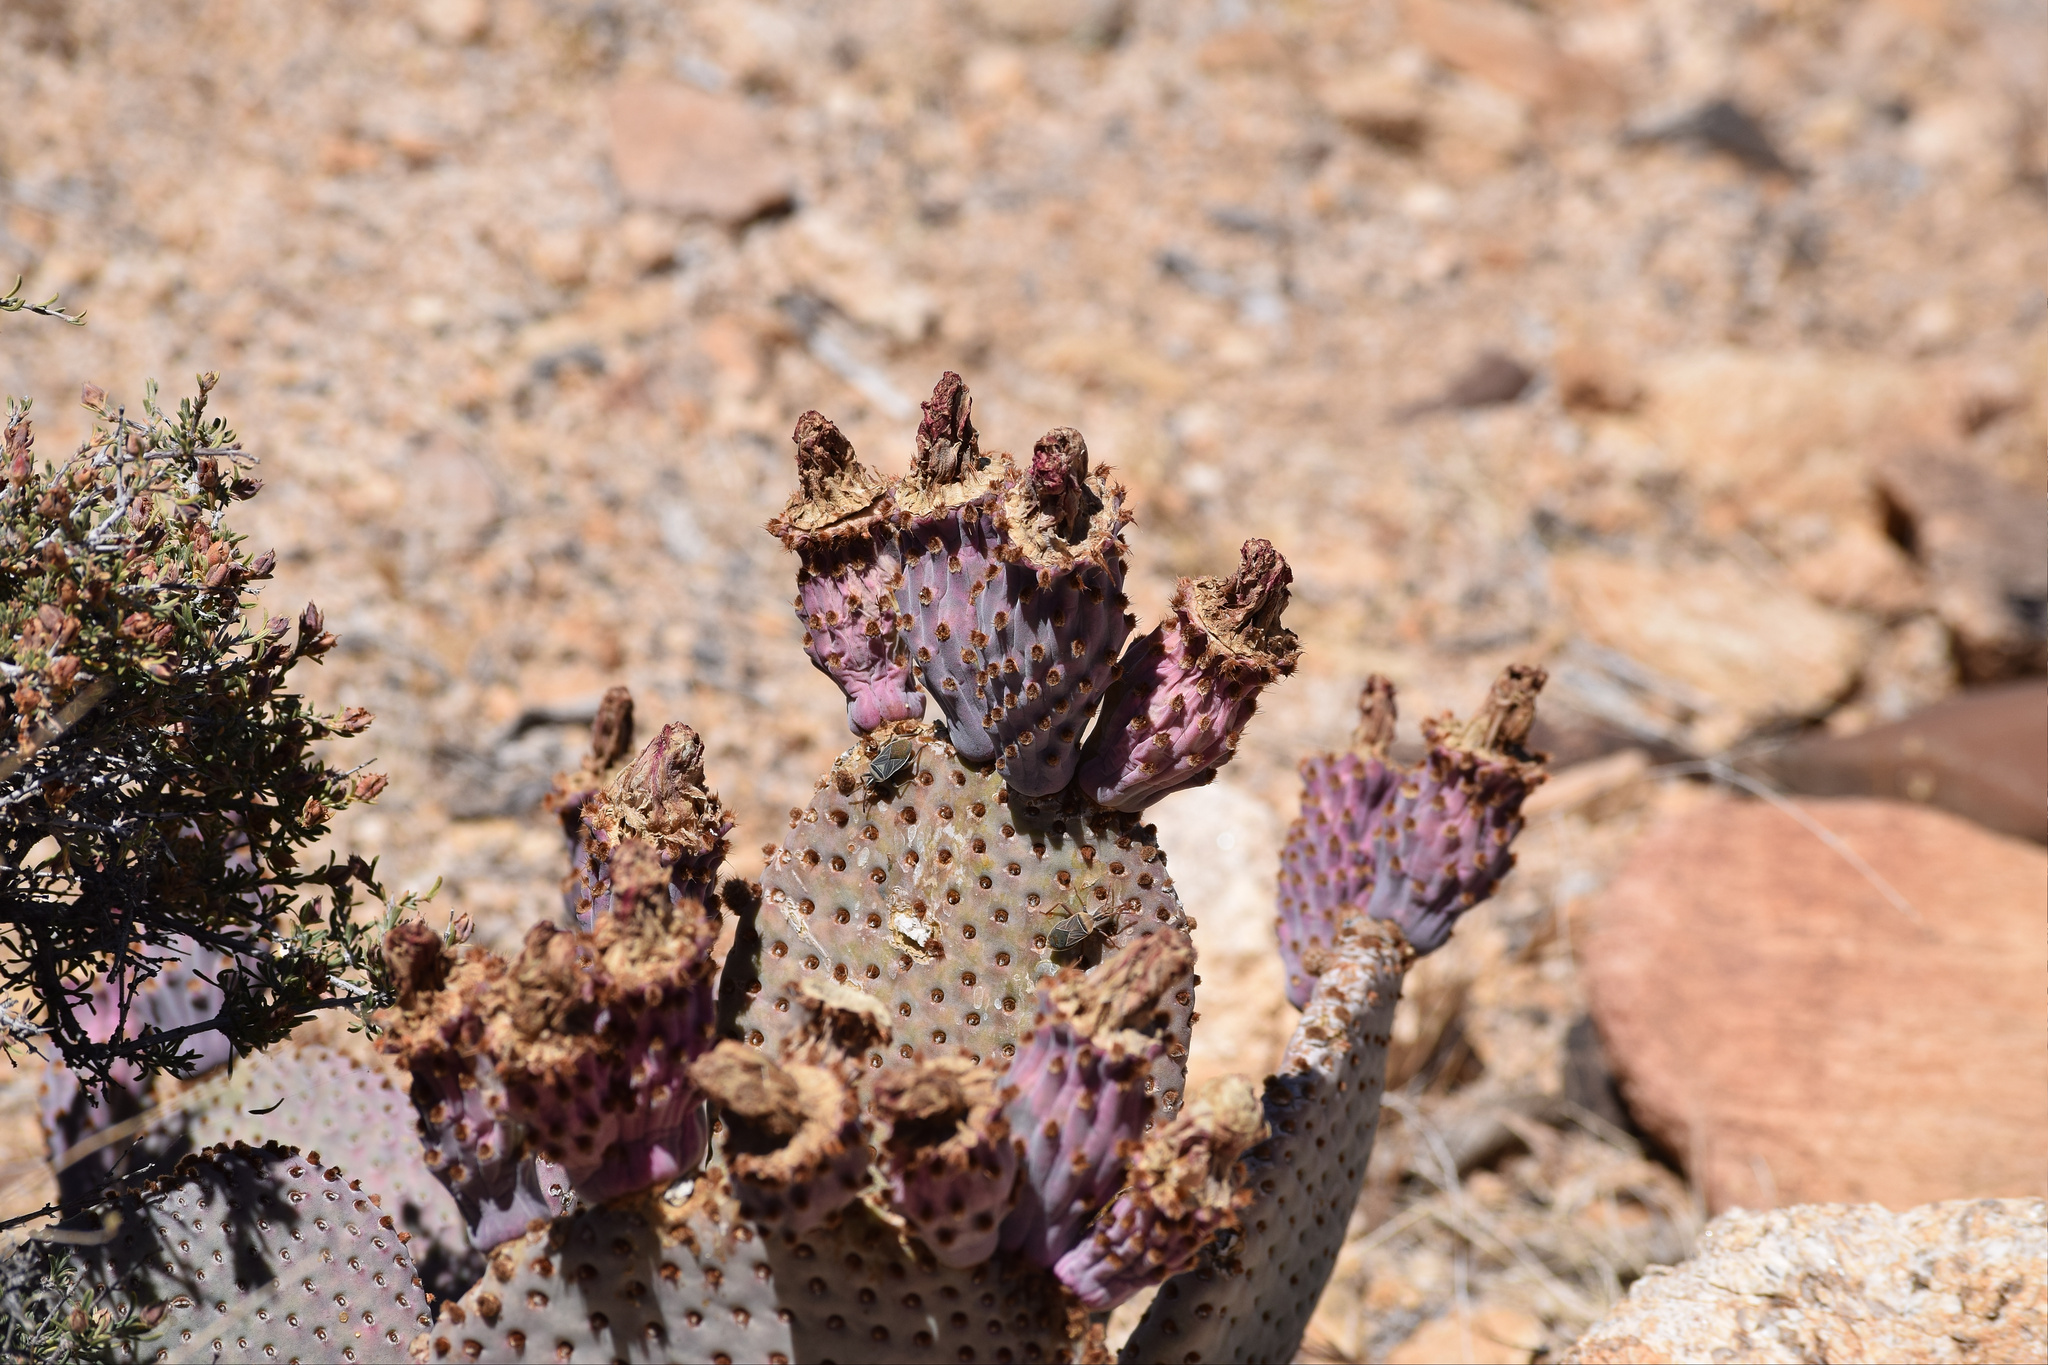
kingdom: Plantae
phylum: Tracheophyta
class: Magnoliopsida
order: Caryophyllales
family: Cactaceae
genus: Opuntia
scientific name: Opuntia basilaris
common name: Beavertail prickly-pear
